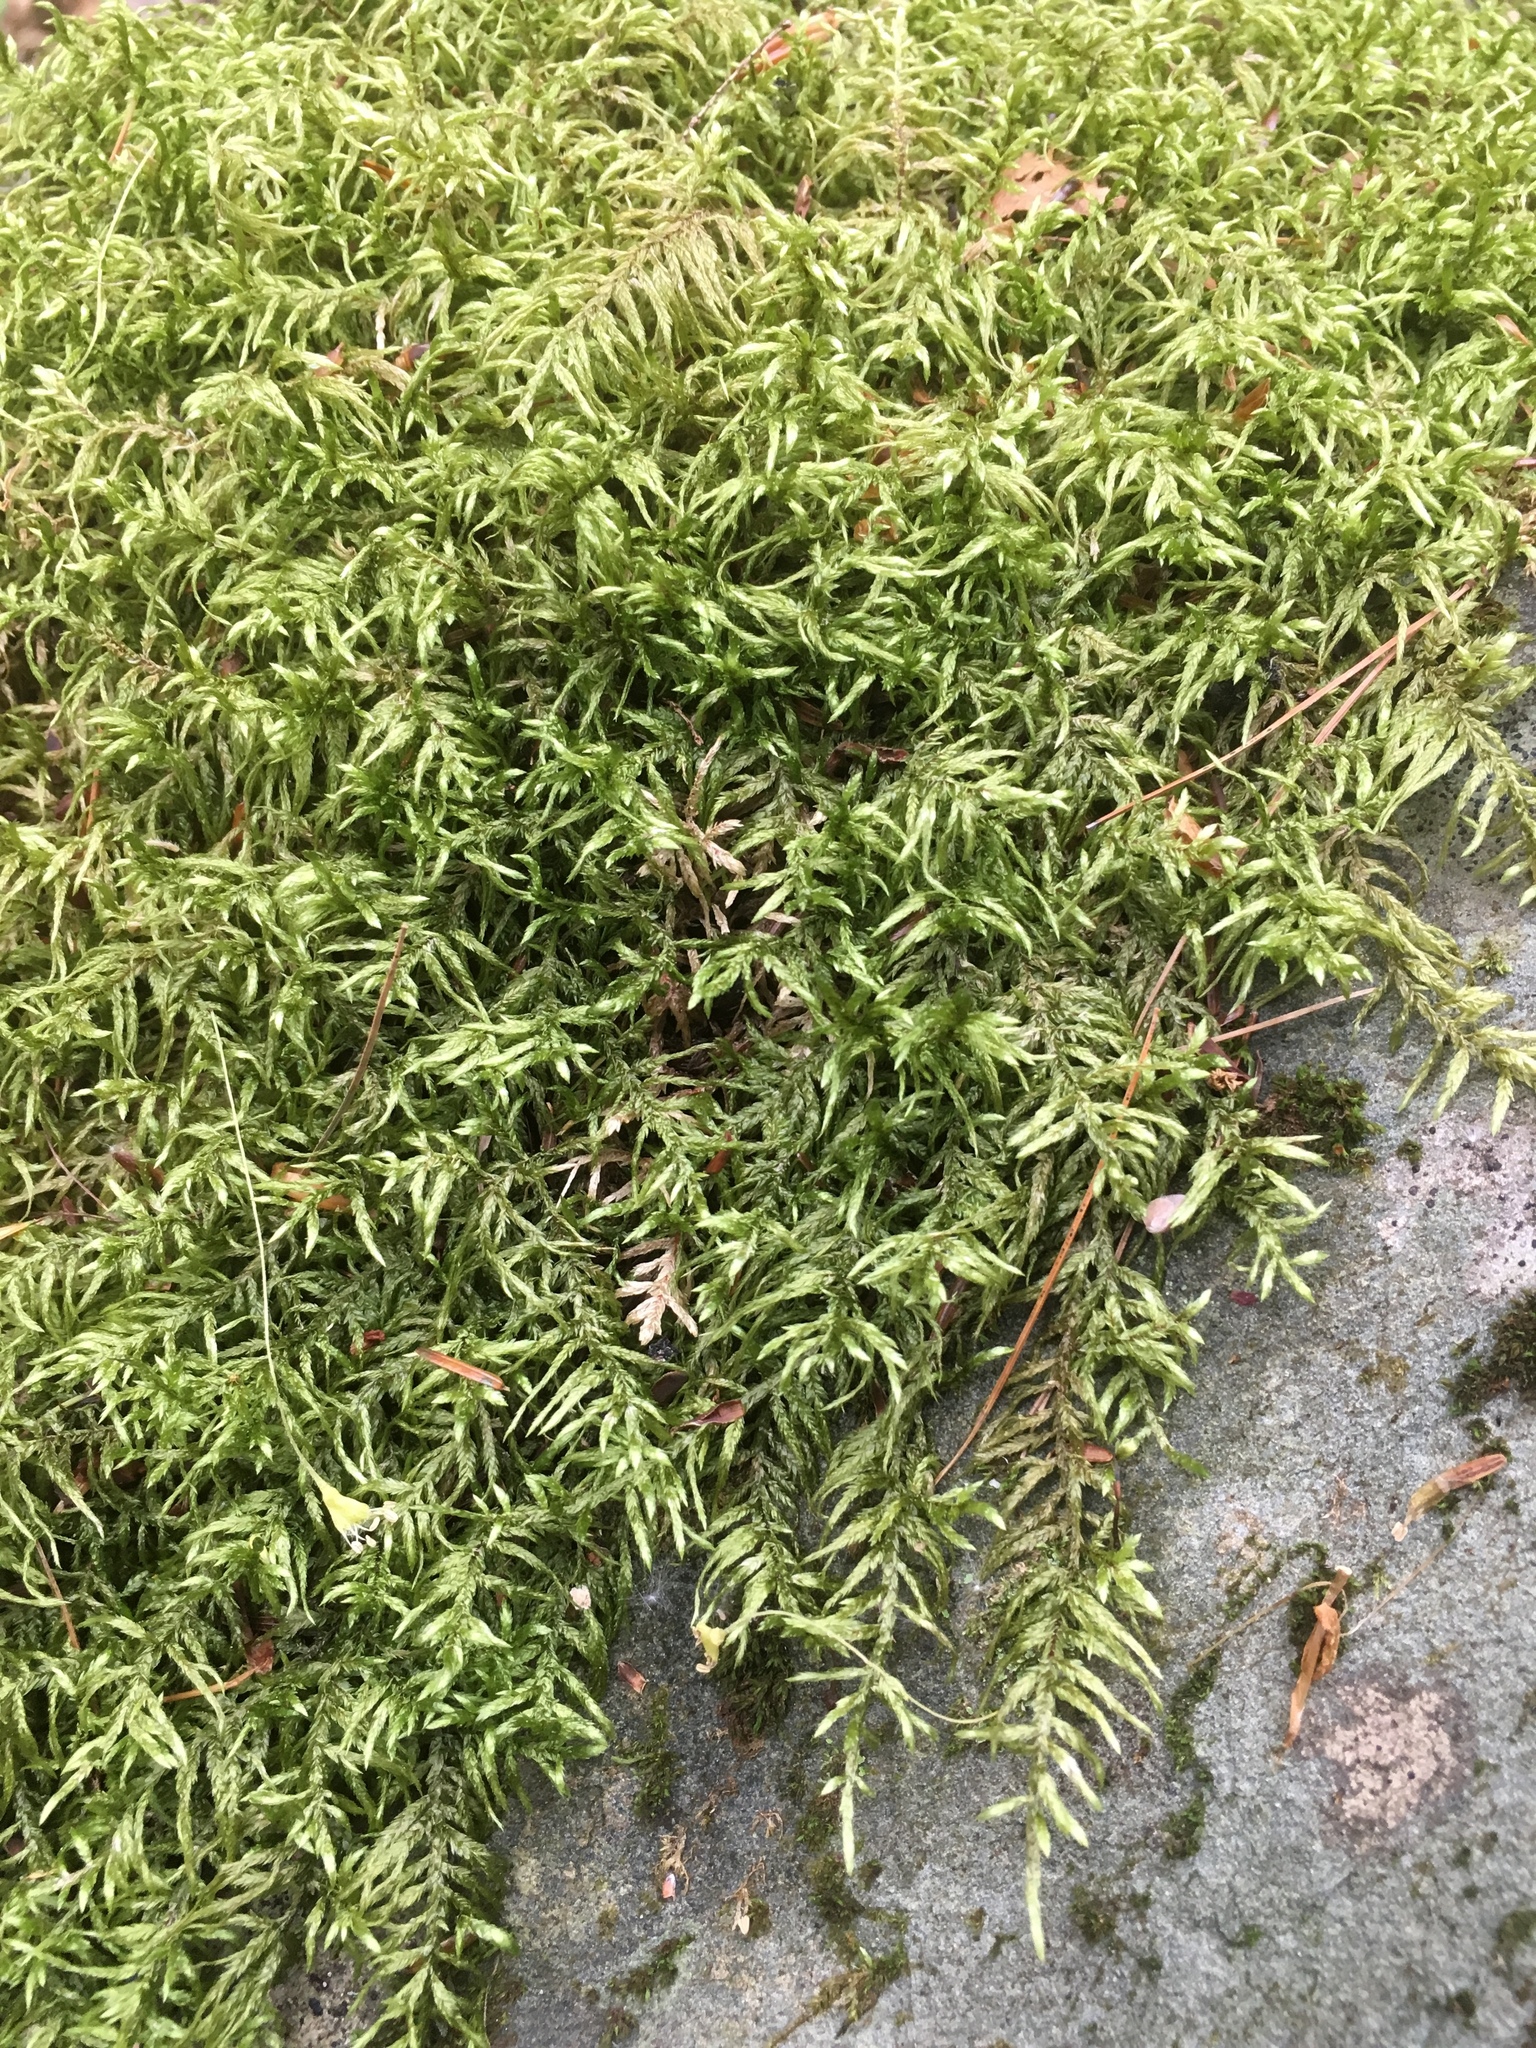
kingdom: Plantae
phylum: Bryophyta
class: Bryopsida
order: Hypnales
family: Hylocomiaceae
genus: Pleurozium
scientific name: Pleurozium schreberi
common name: Red-stemmed feather moss
